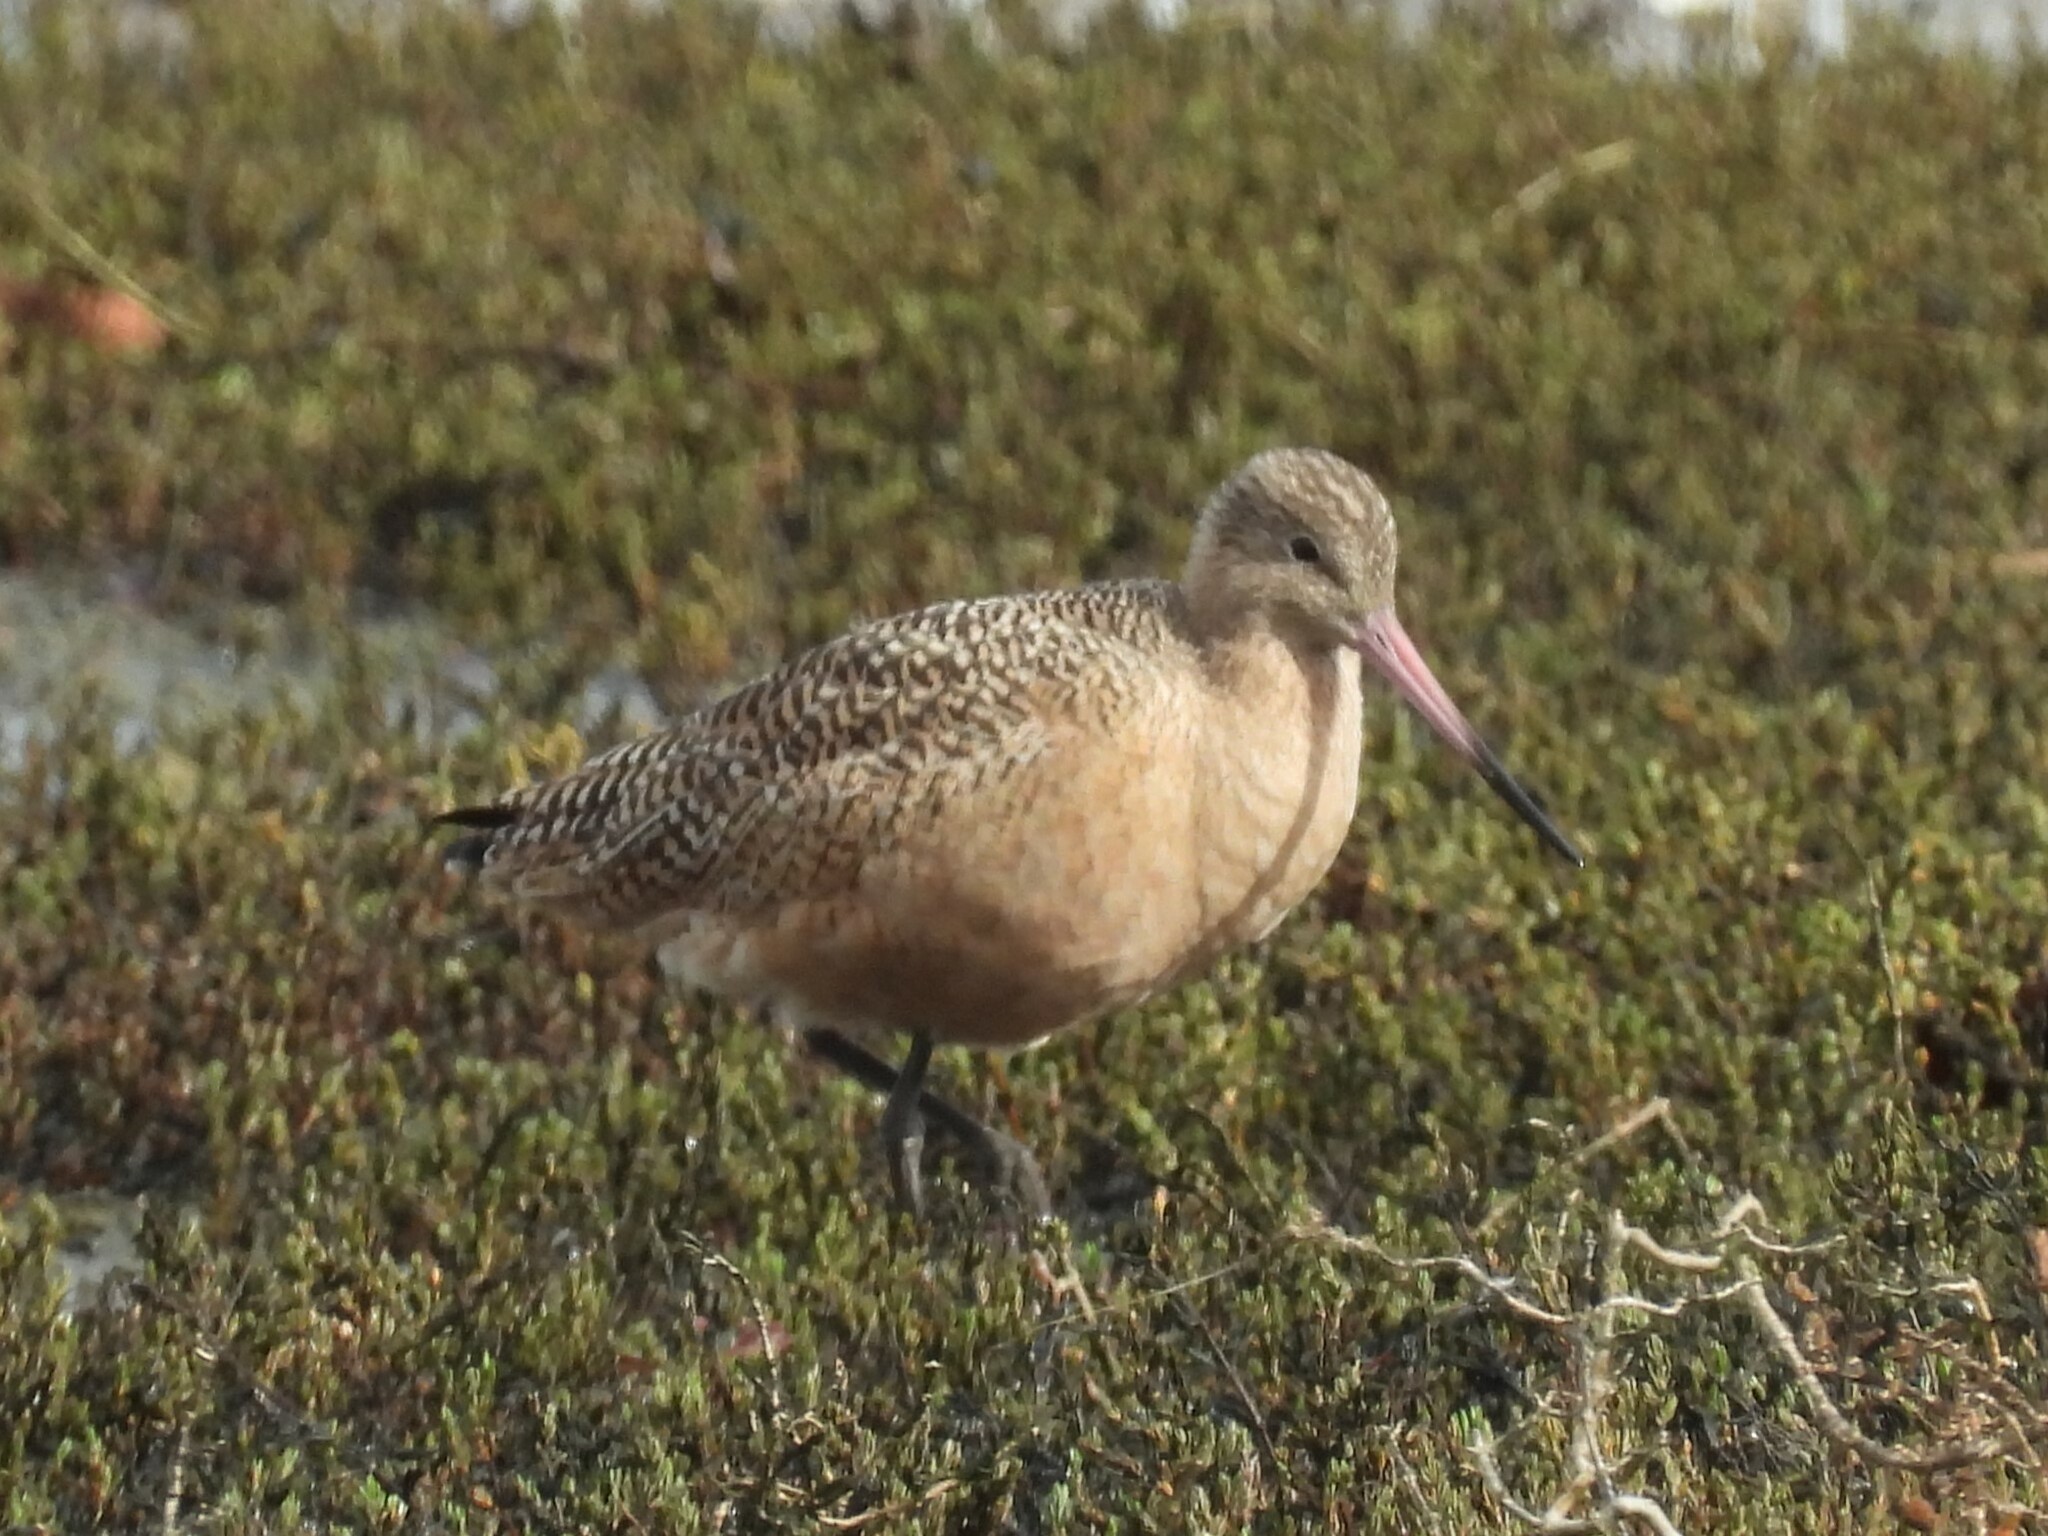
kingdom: Animalia
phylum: Chordata
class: Aves
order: Charadriiformes
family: Scolopacidae
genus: Limosa
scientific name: Limosa fedoa
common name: Marbled godwit
